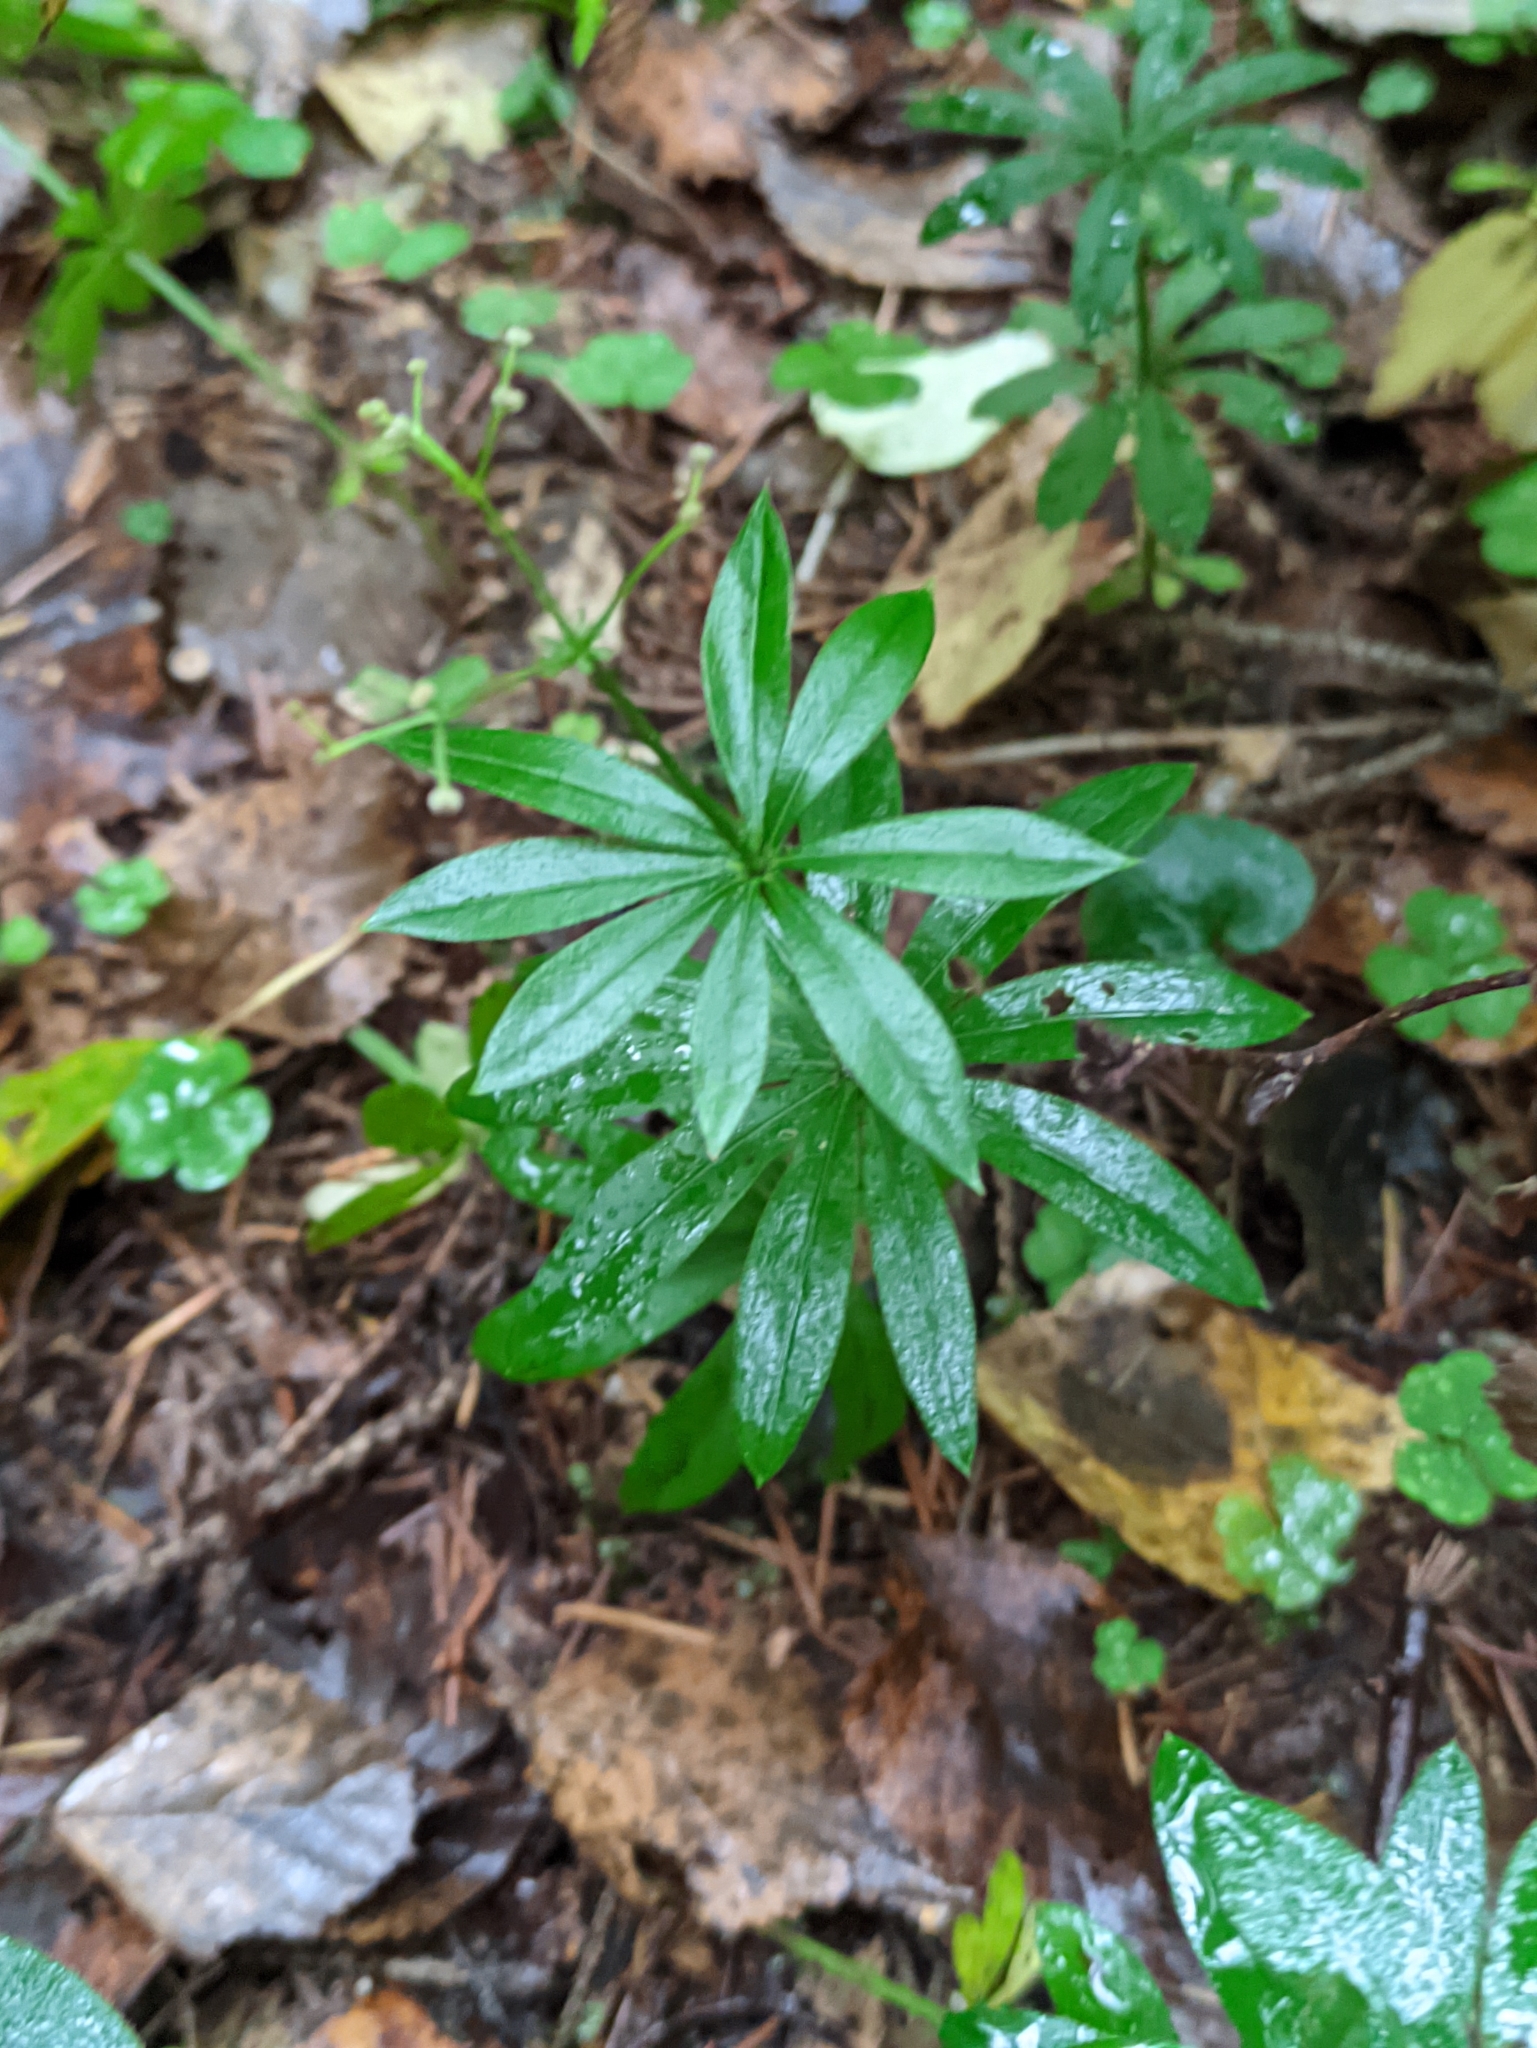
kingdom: Plantae
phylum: Tracheophyta
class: Magnoliopsida
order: Gentianales
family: Rubiaceae
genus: Galium
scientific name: Galium odoratum
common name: Sweet woodruff
